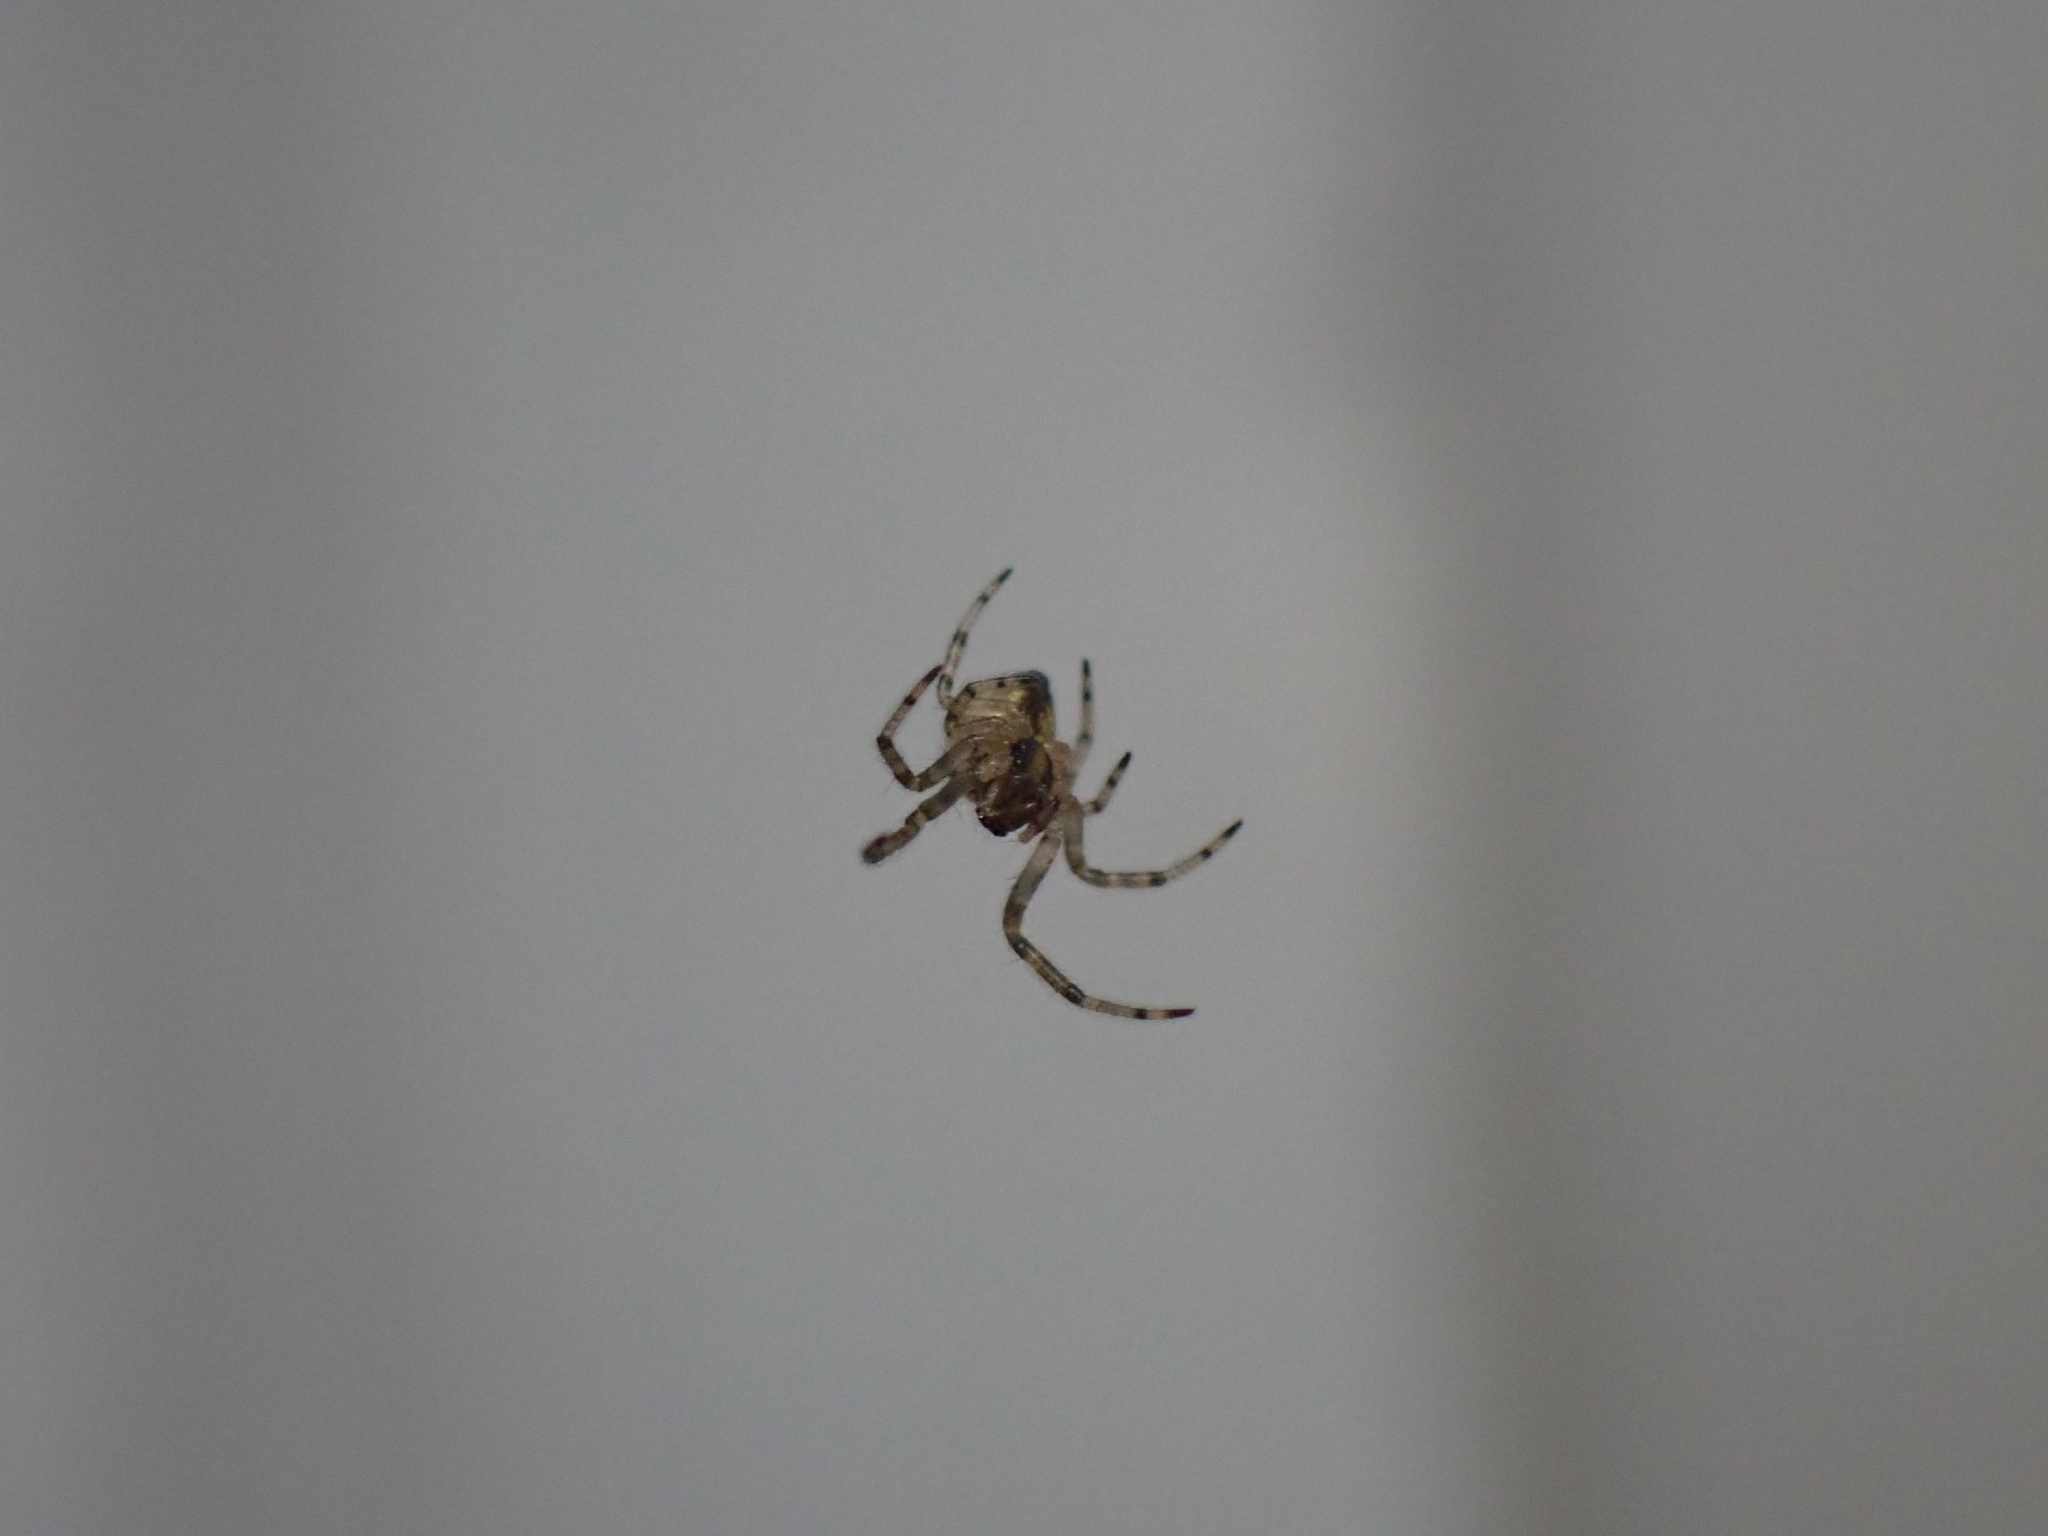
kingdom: Animalia
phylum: Arthropoda
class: Arachnida
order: Araneae
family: Araneidae
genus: Zygiella
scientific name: Zygiella x-notata
